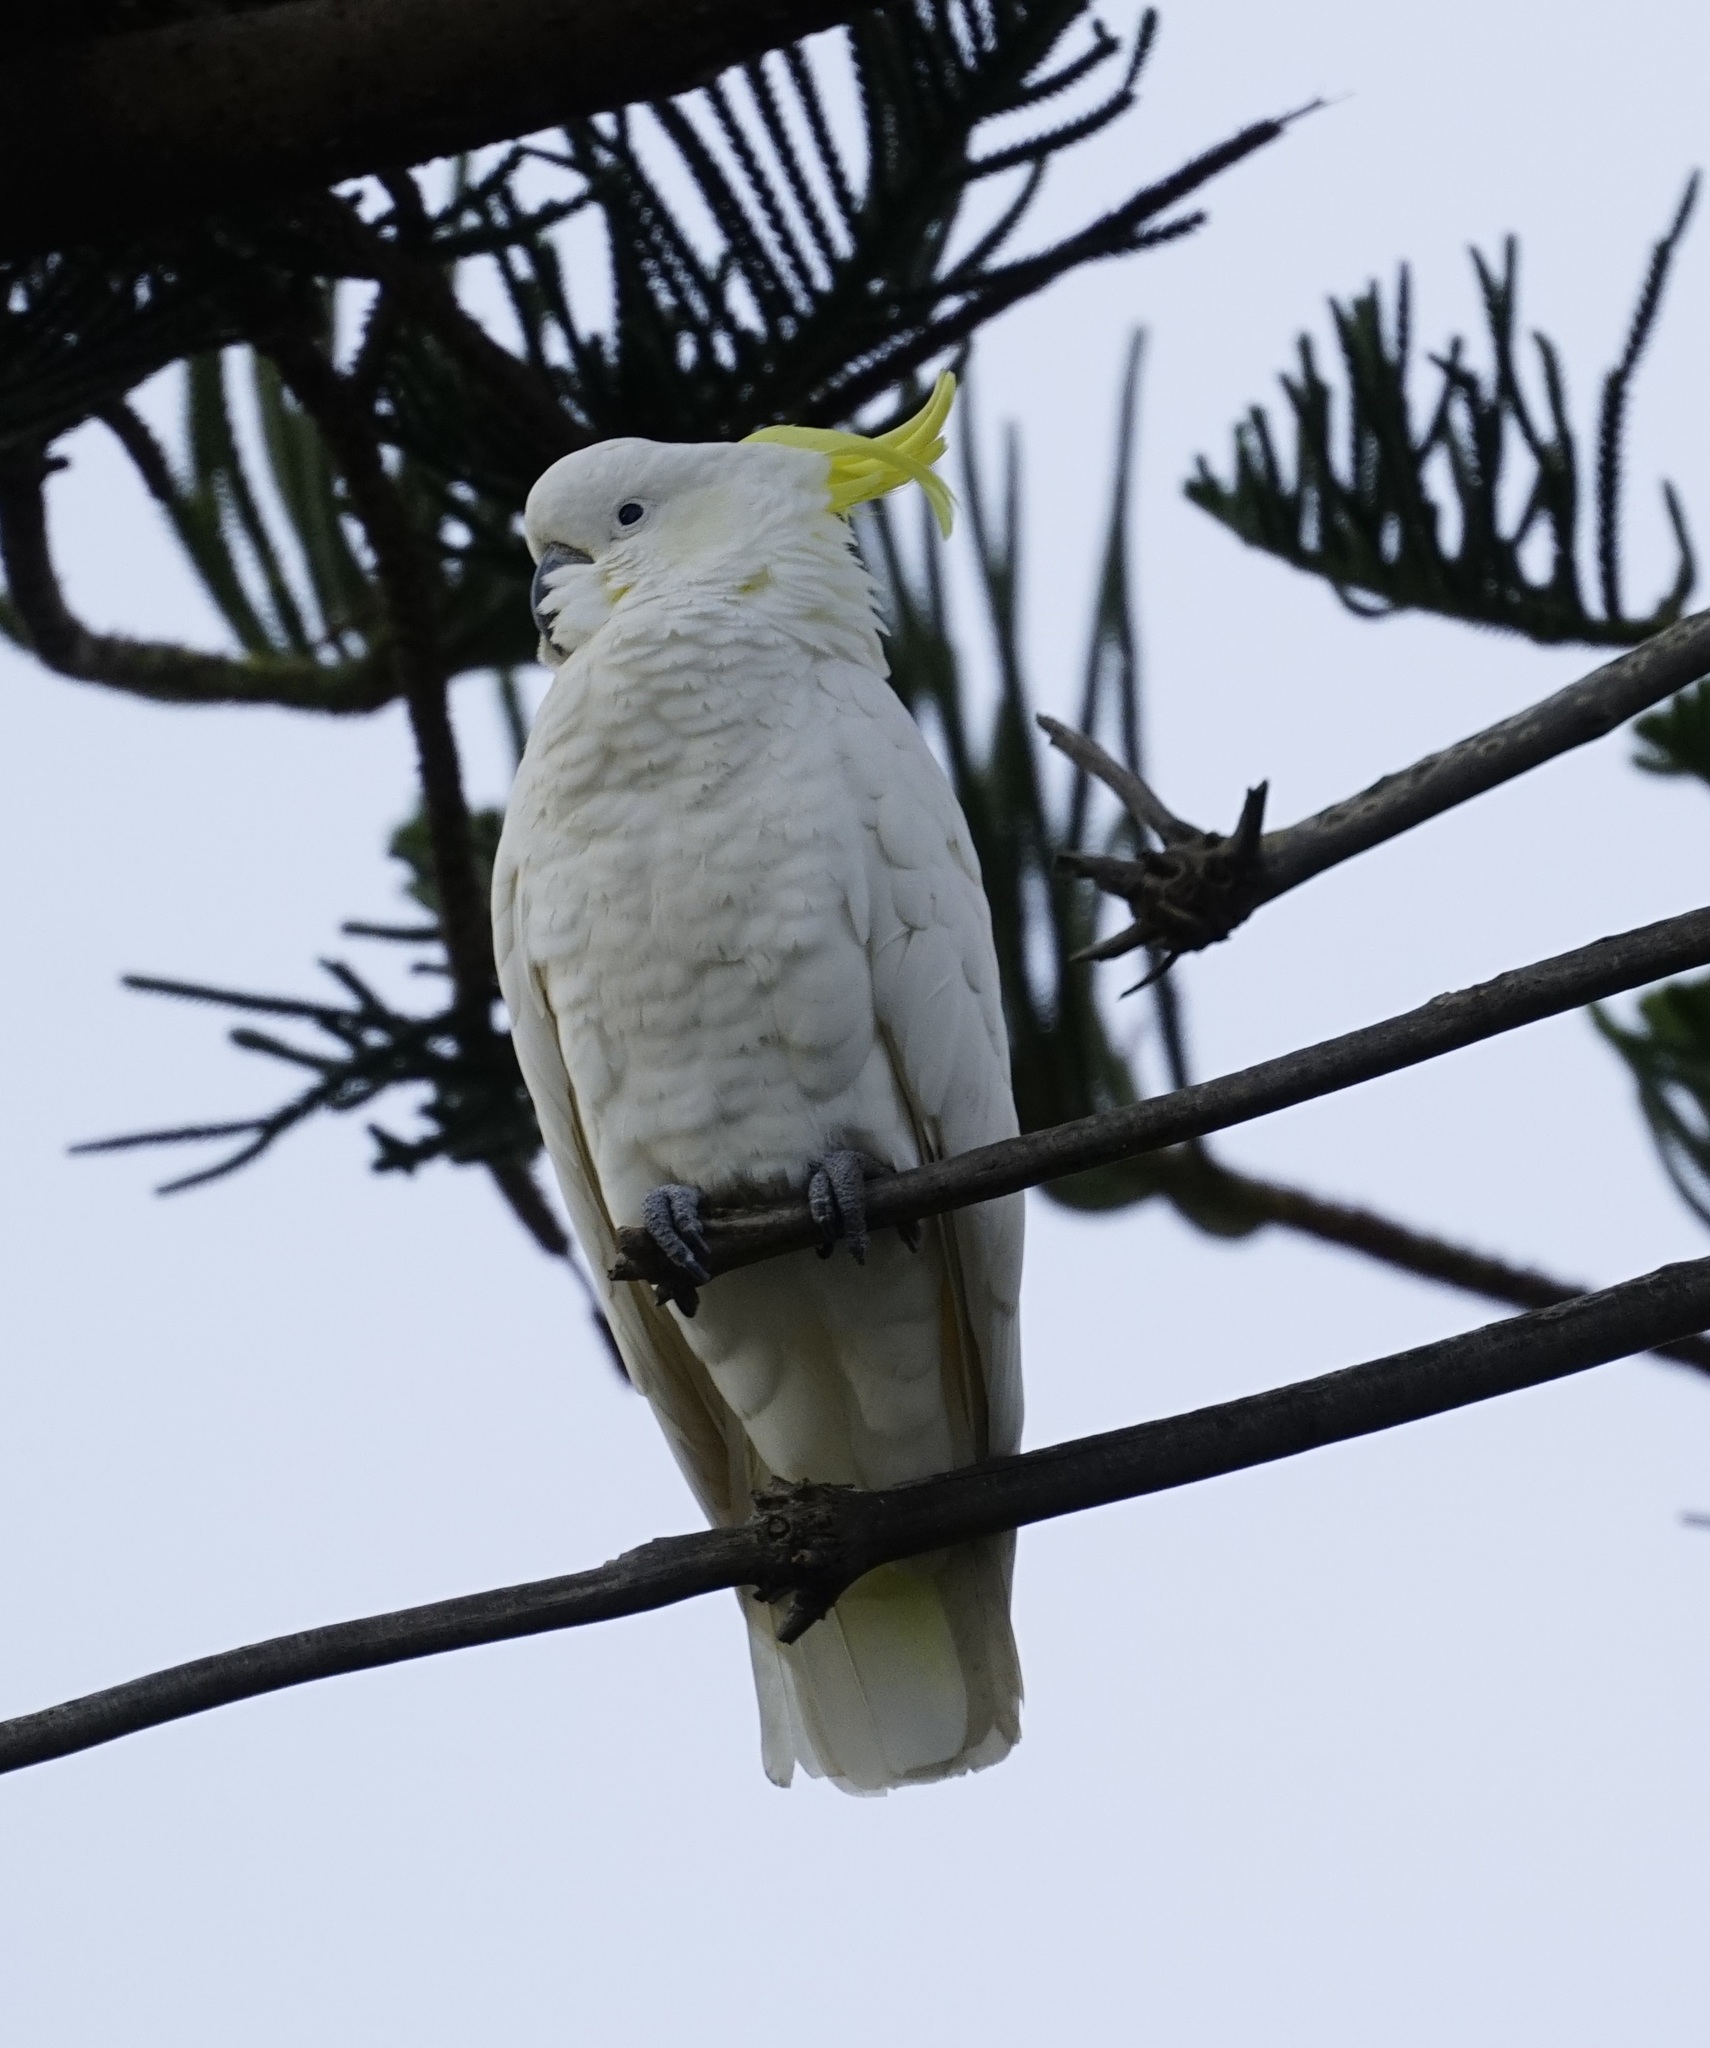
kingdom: Animalia
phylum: Chordata
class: Aves
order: Psittaciformes
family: Psittacidae
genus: Cacatua
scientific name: Cacatua galerita
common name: Sulphur-crested cockatoo
